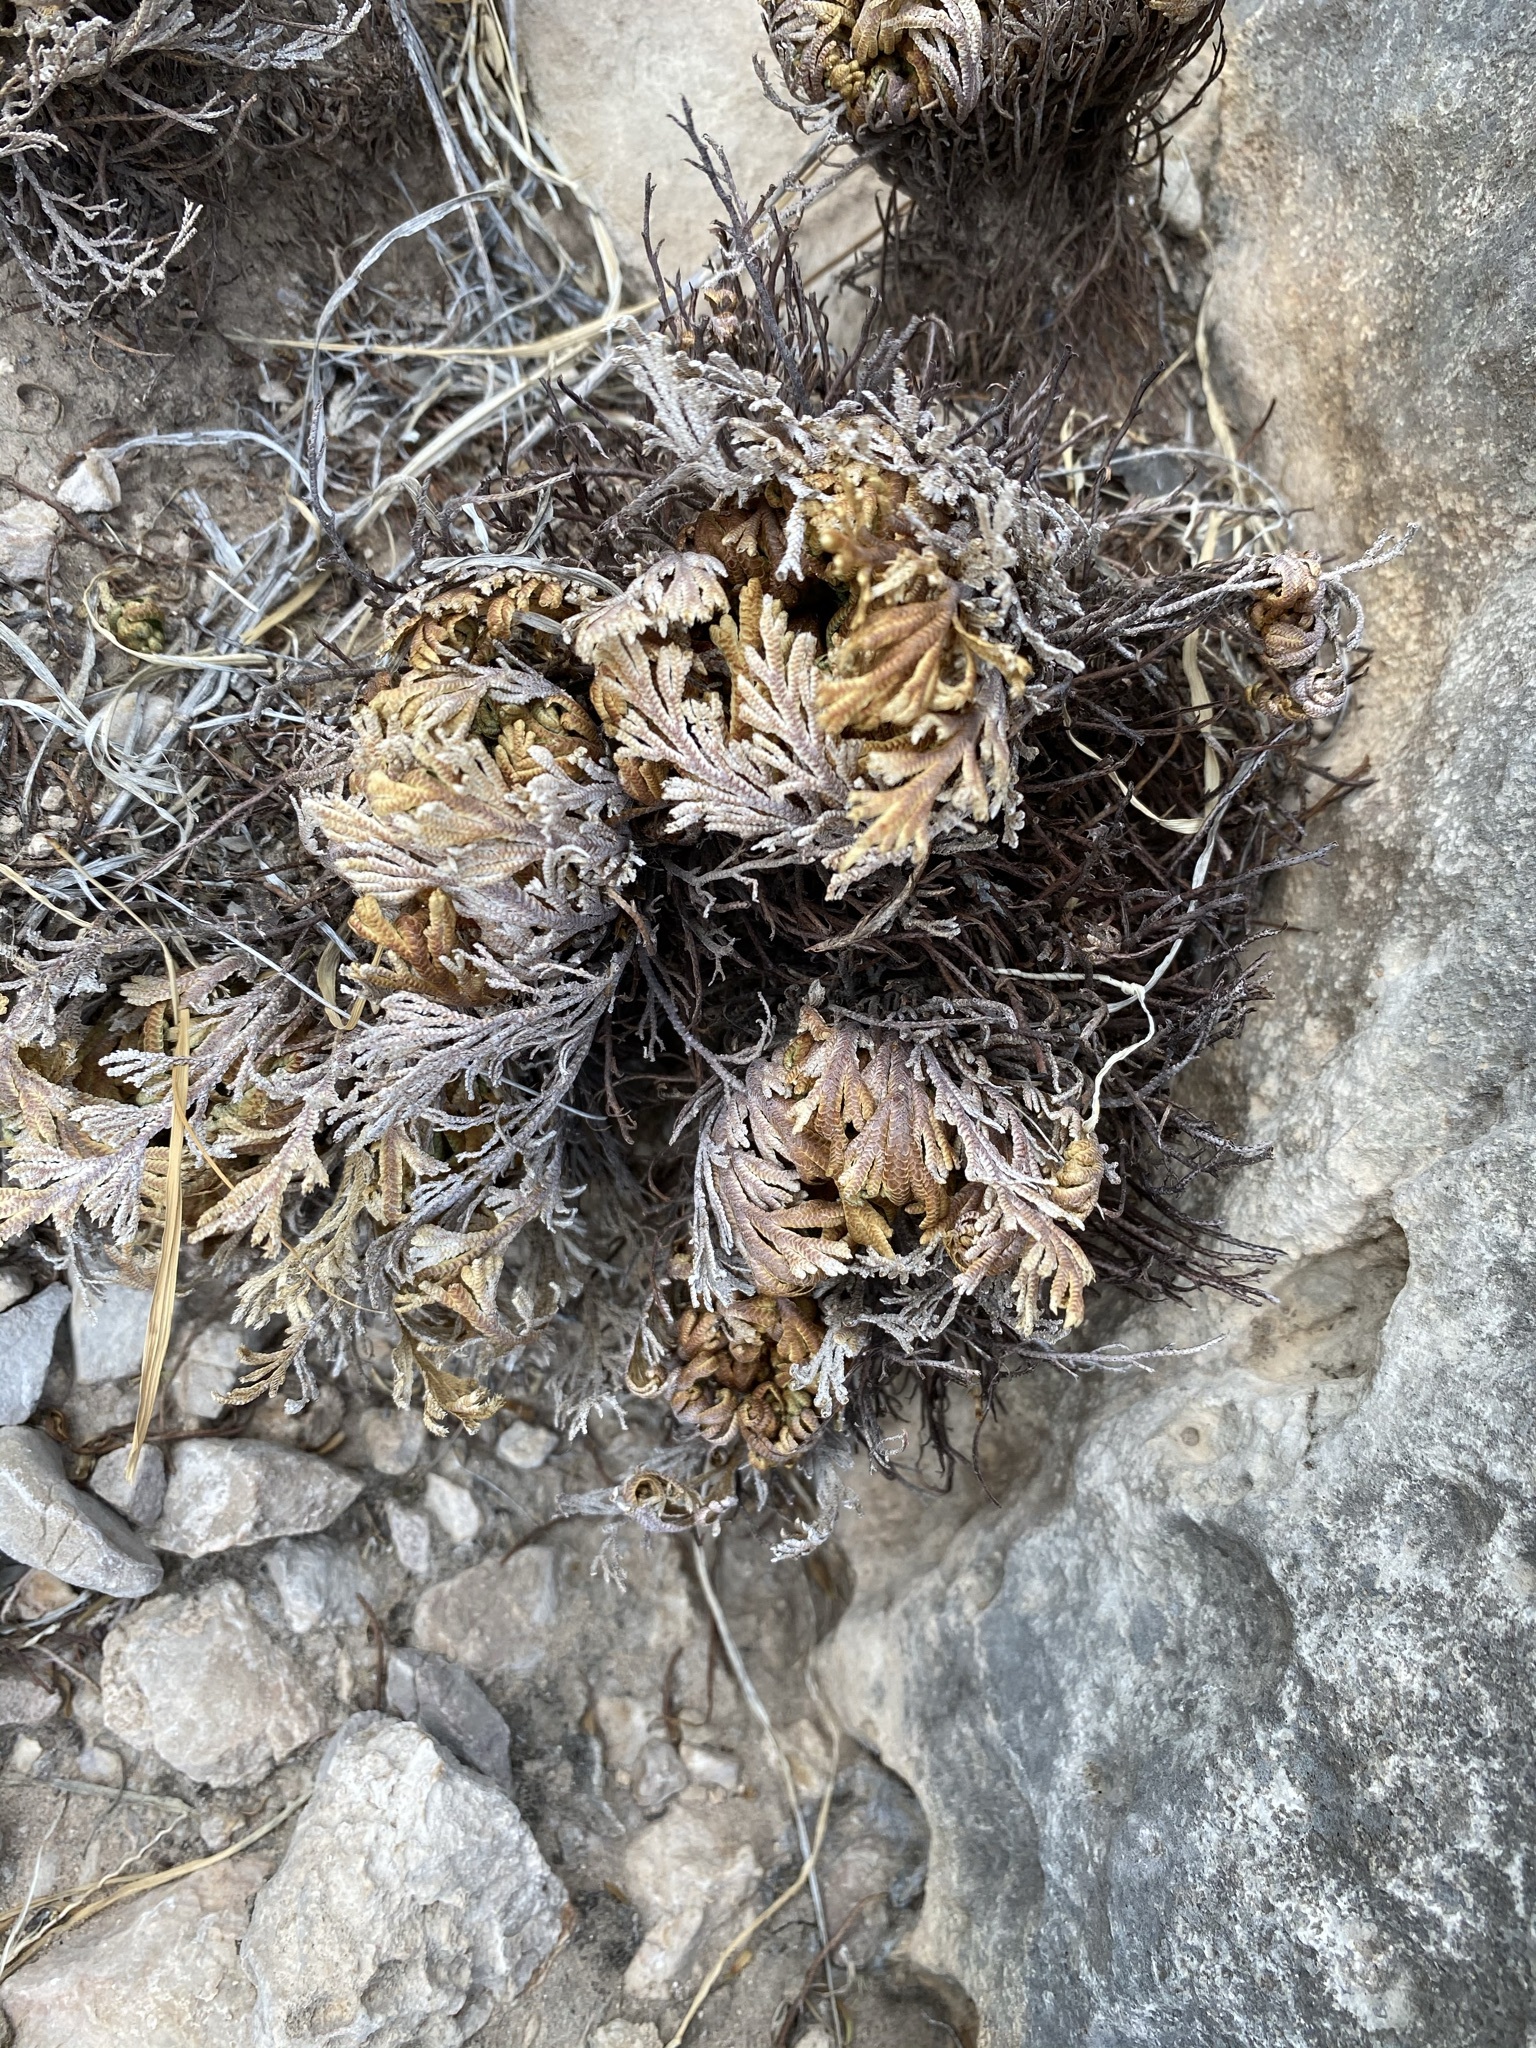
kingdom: Plantae
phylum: Tracheophyta
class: Lycopodiopsida
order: Selaginellales
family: Selaginellaceae
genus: Selaginella
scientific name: Selaginella lepidophylla
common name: Rose-of-jericho
